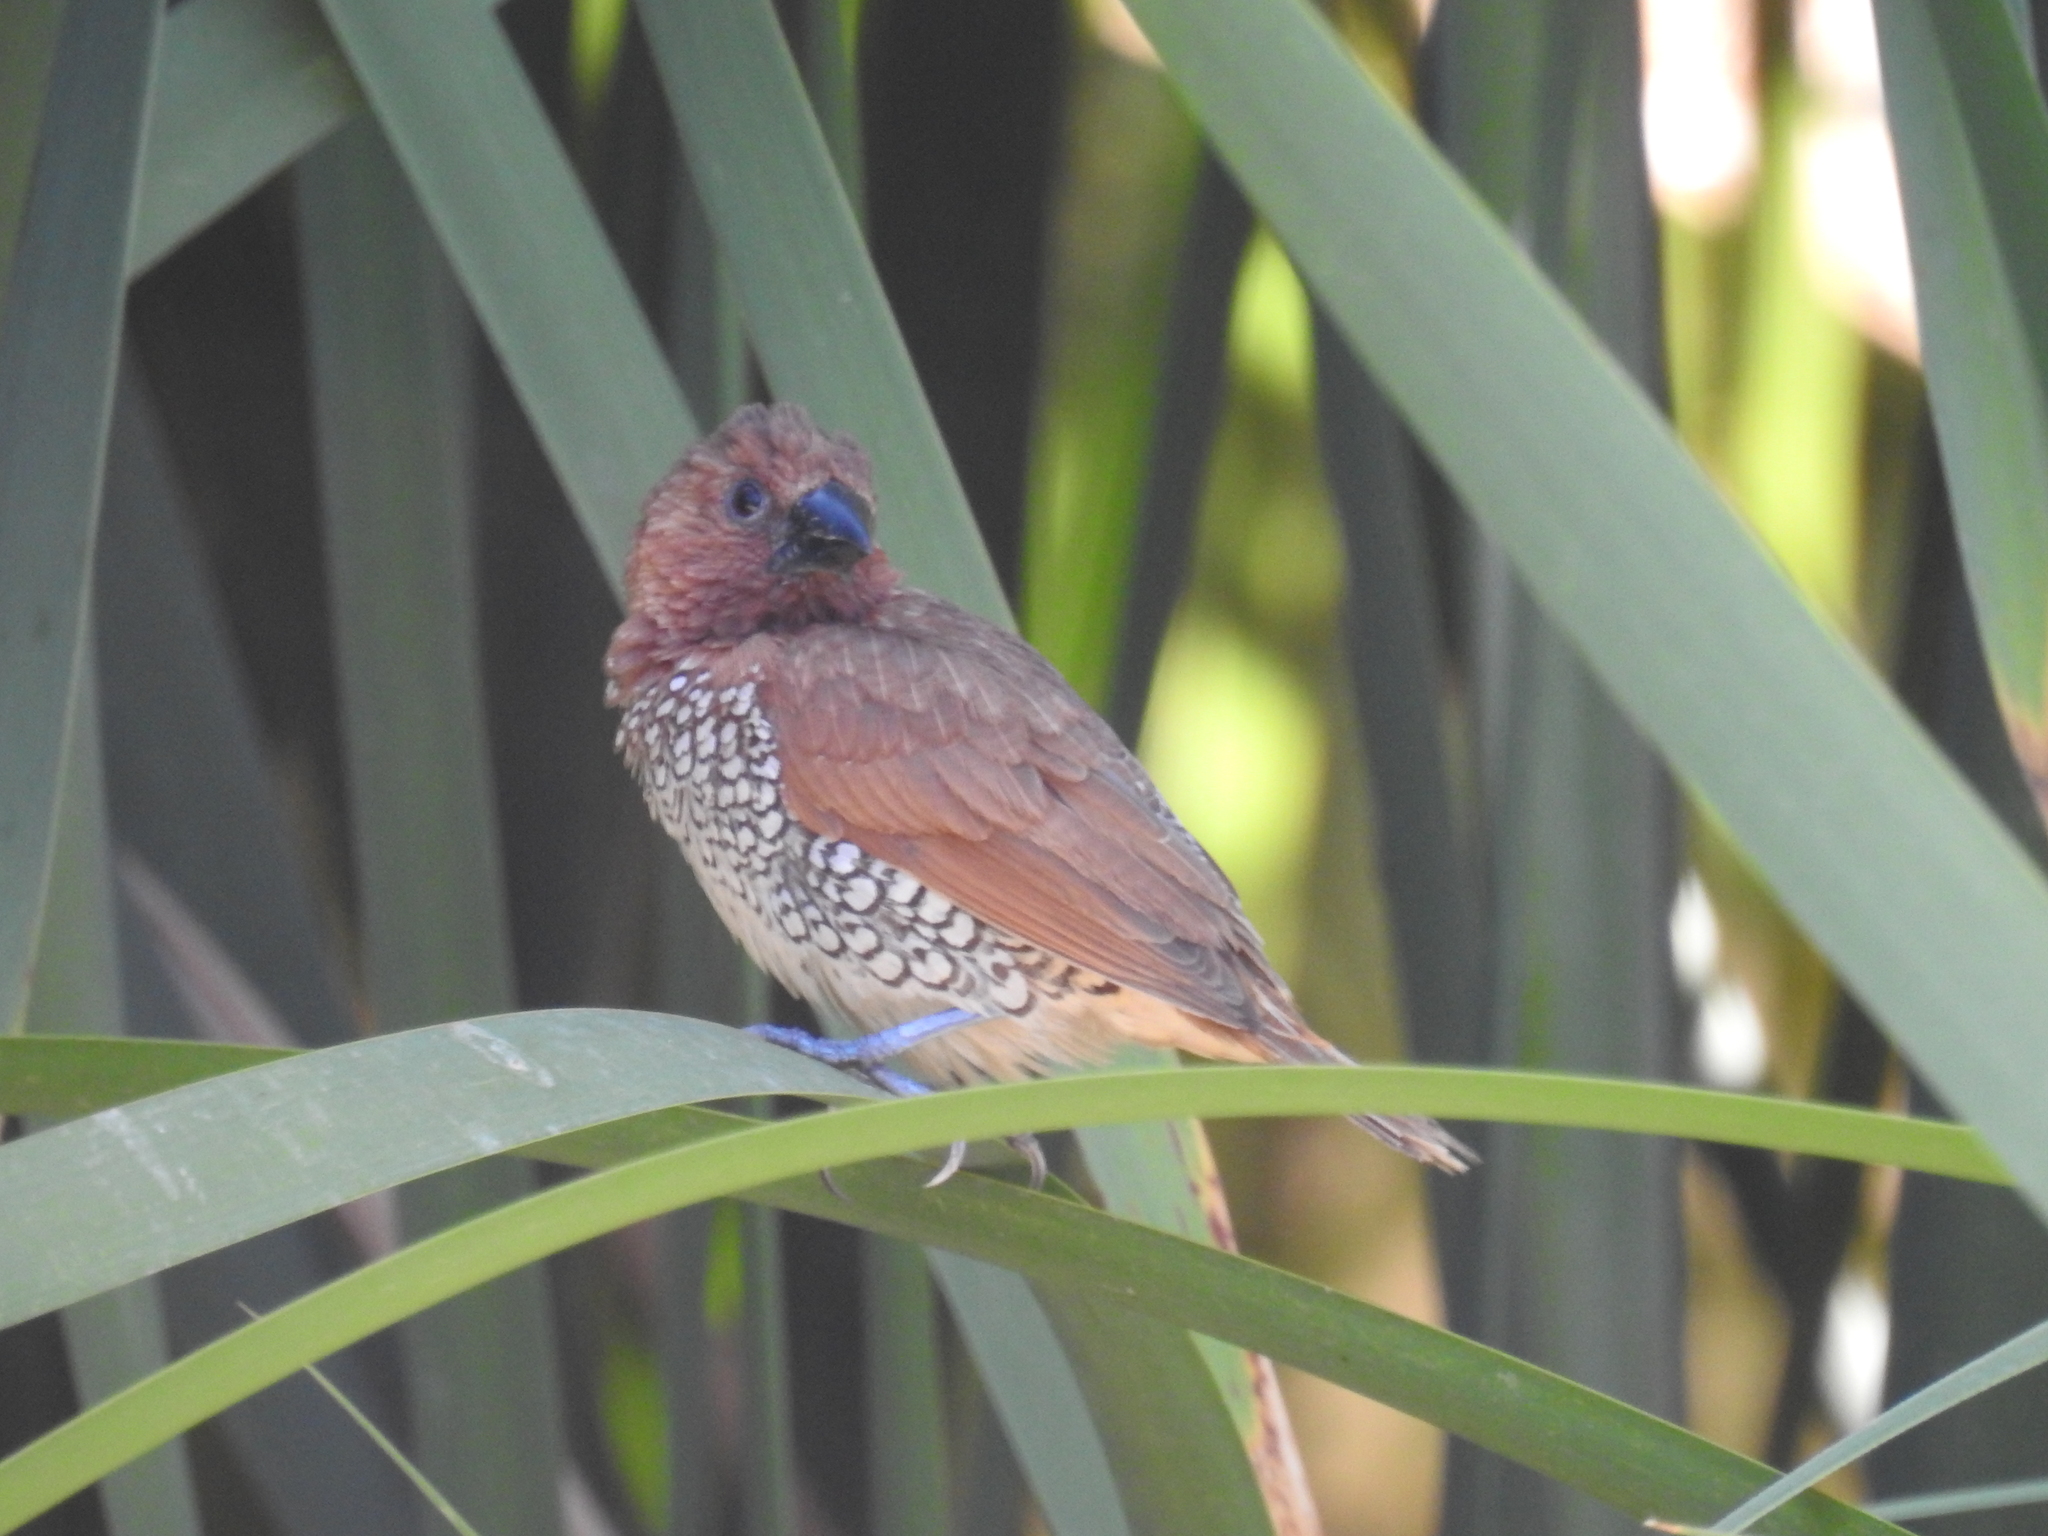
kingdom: Animalia
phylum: Chordata
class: Aves
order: Passeriformes
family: Estrildidae
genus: Lonchura
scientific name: Lonchura punctulata
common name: Scaly-breasted munia
